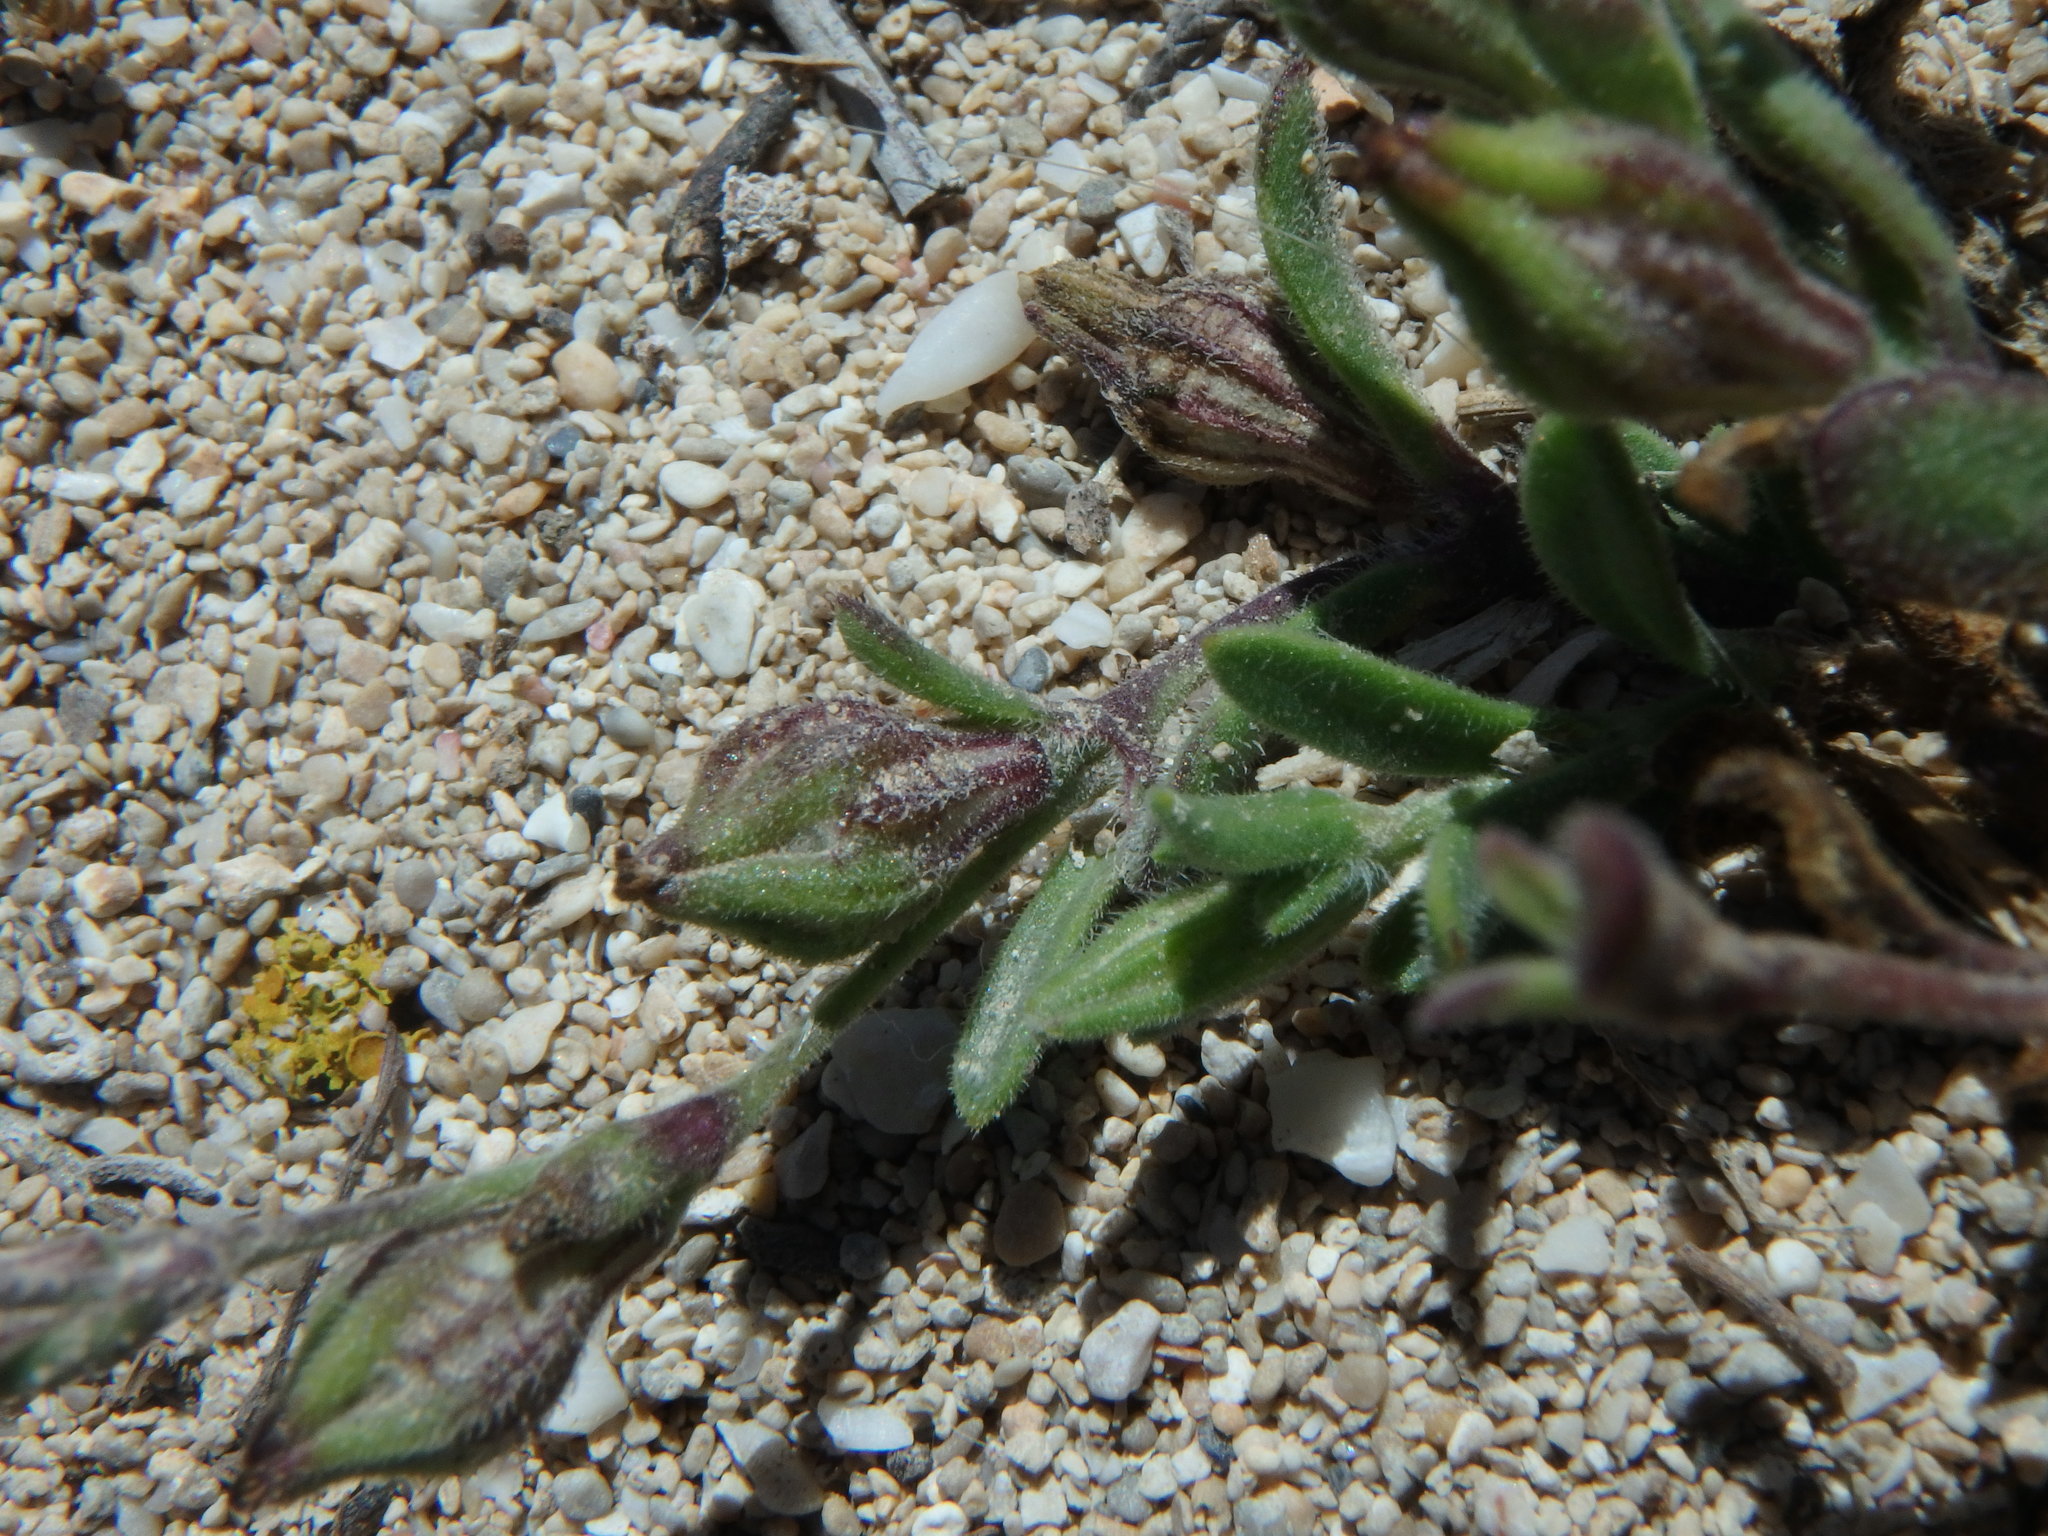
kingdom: Plantae
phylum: Tracheophyta
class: Magnoliopsida
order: Caryophyllales
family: Caryophyllaceae
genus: Silene
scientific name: Silene sclerocarpa
